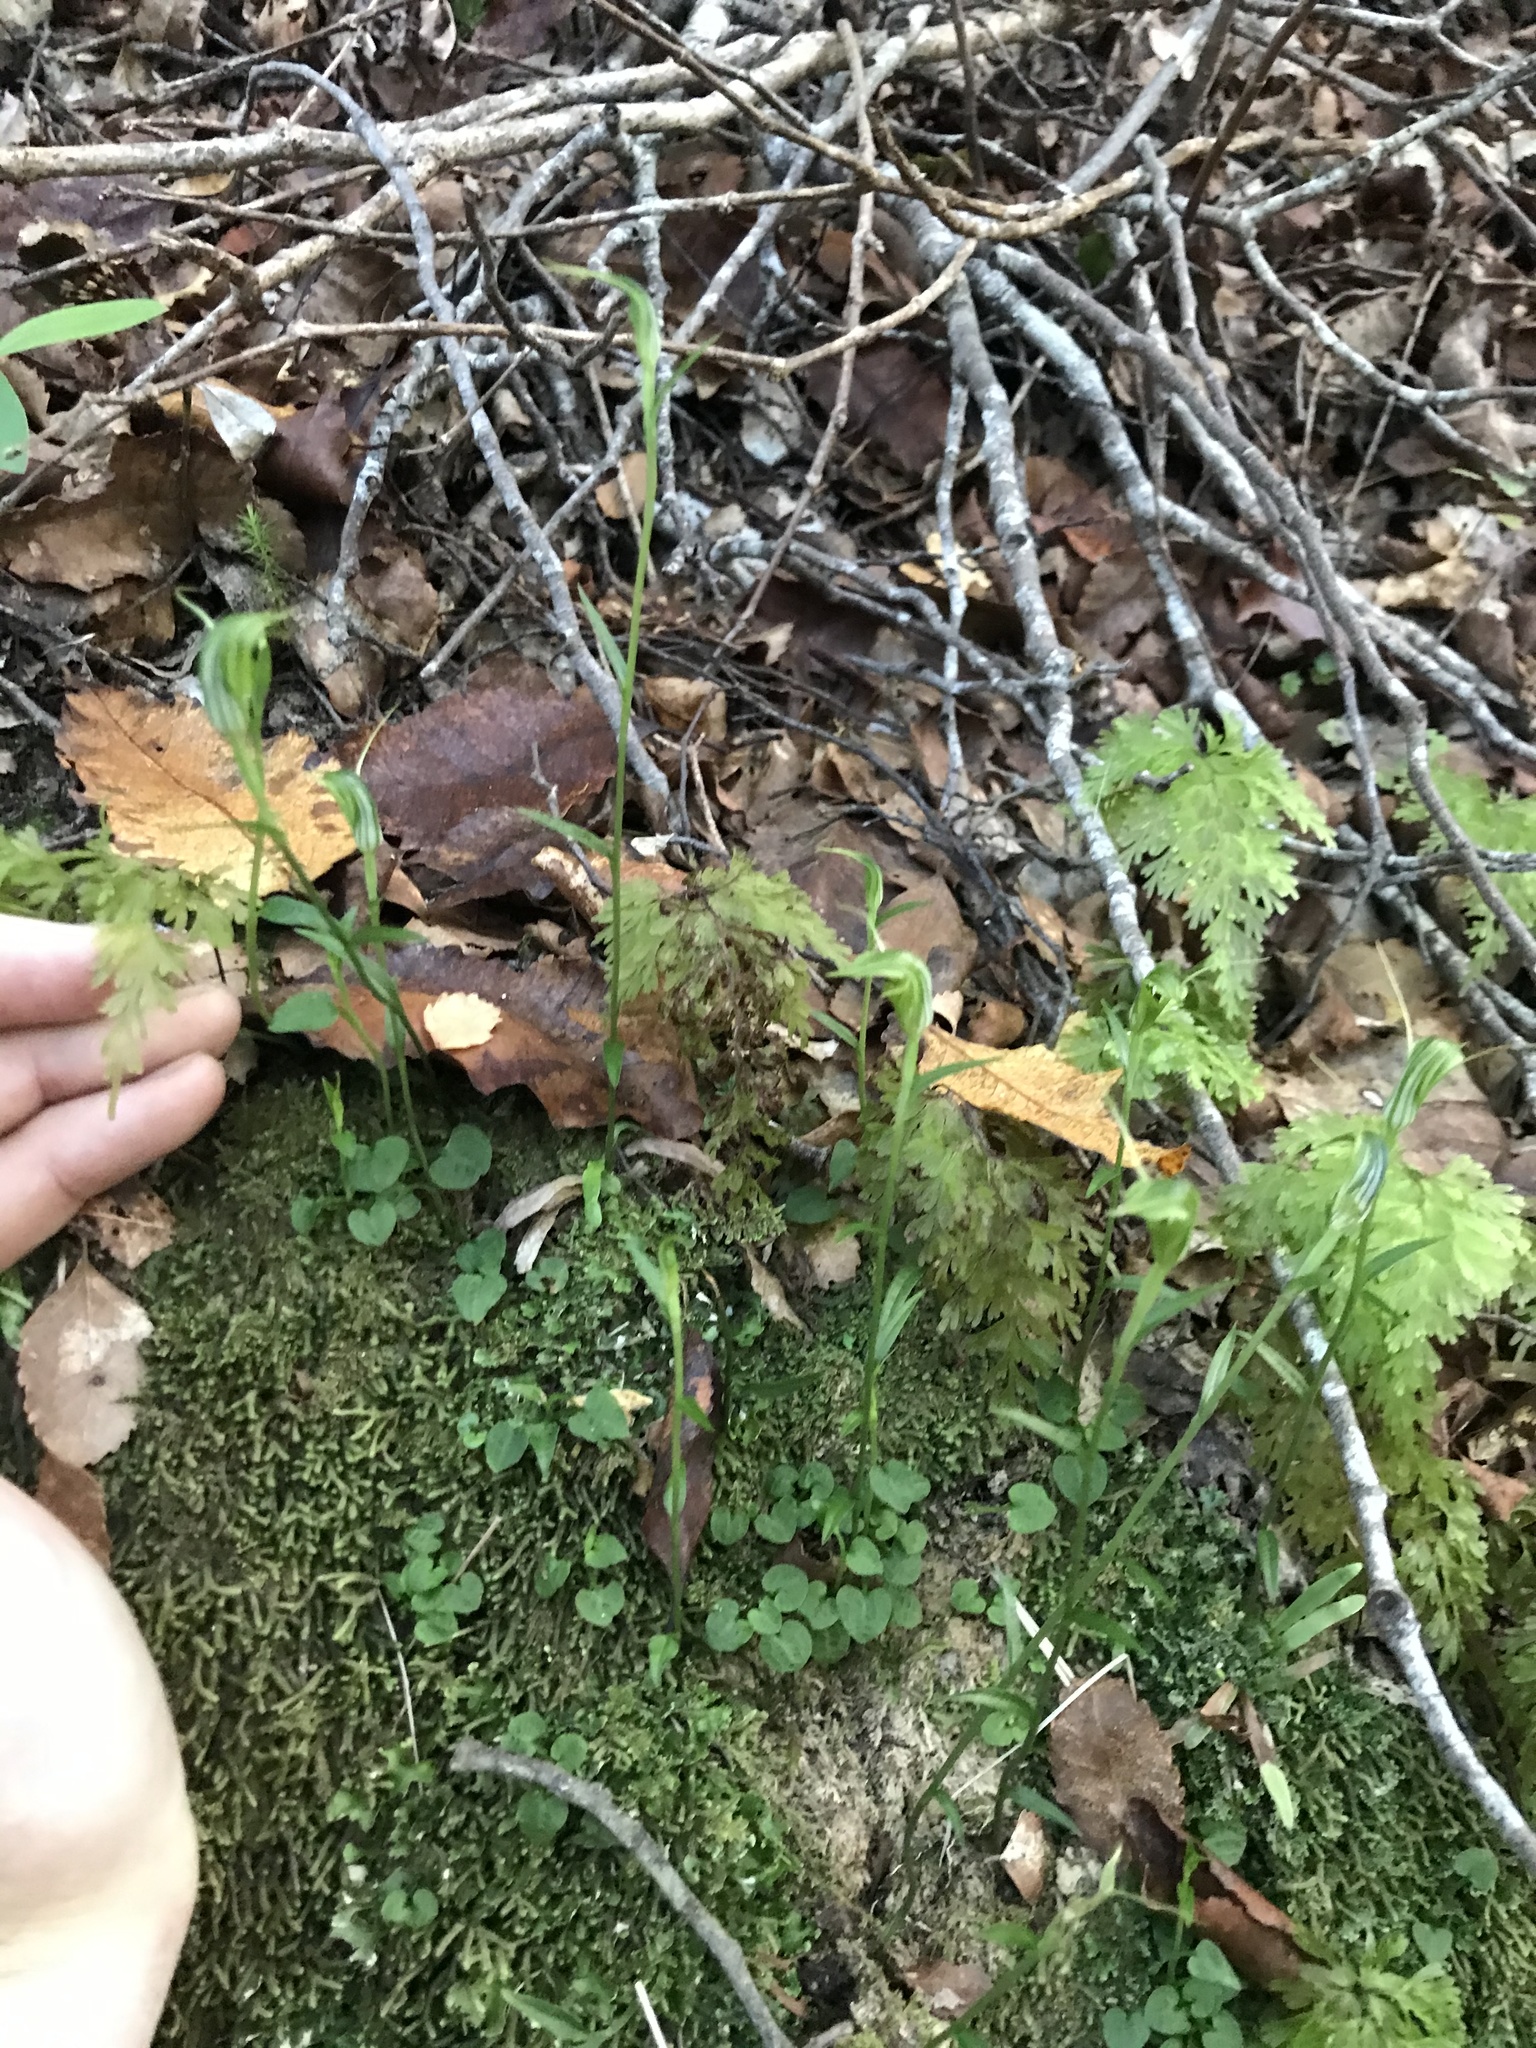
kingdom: Plantae
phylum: Tracheophyta
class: Liliopsida
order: Asparagales
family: Orchidaceae
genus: Pterostylis
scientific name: Pterostylis trullifolia
